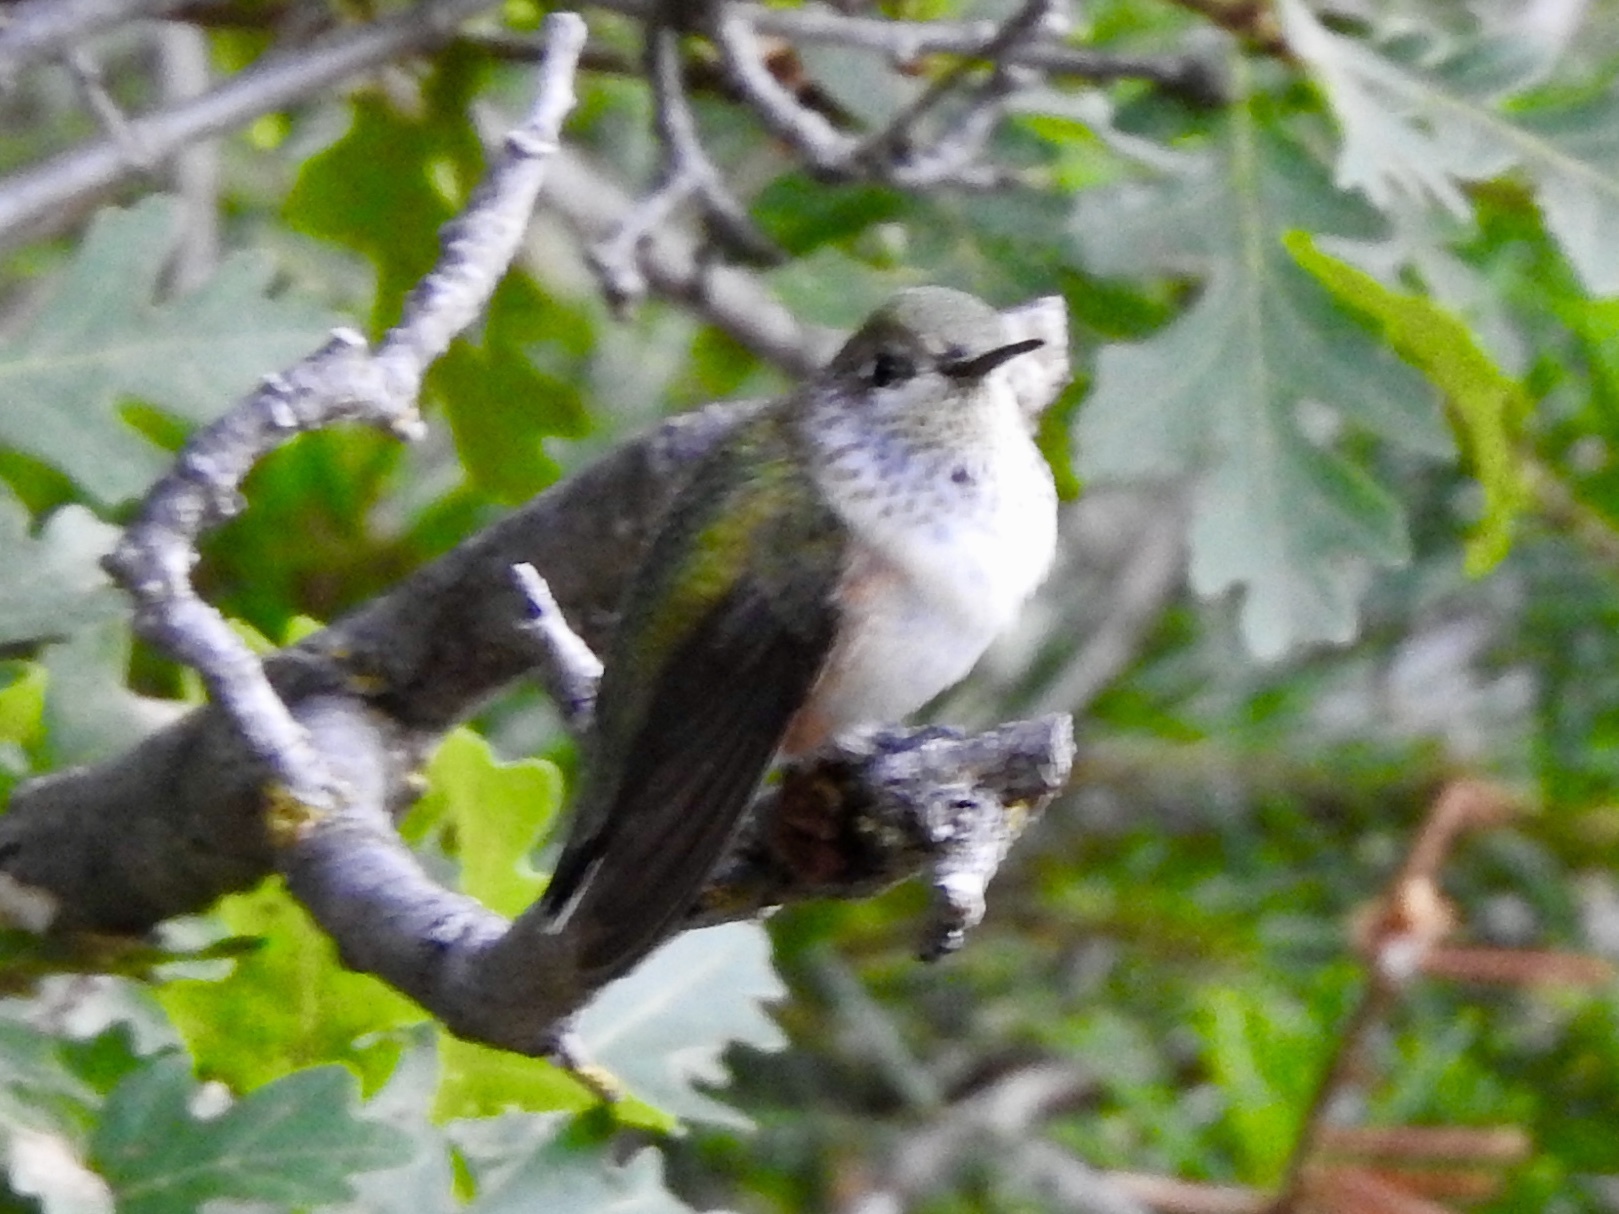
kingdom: Animalia
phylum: Chordata
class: Aves
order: Apodiformes
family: Trochilidae
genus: Selasphorus
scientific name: Selasphorus platycercus
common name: Broad-tailed hummingbird
